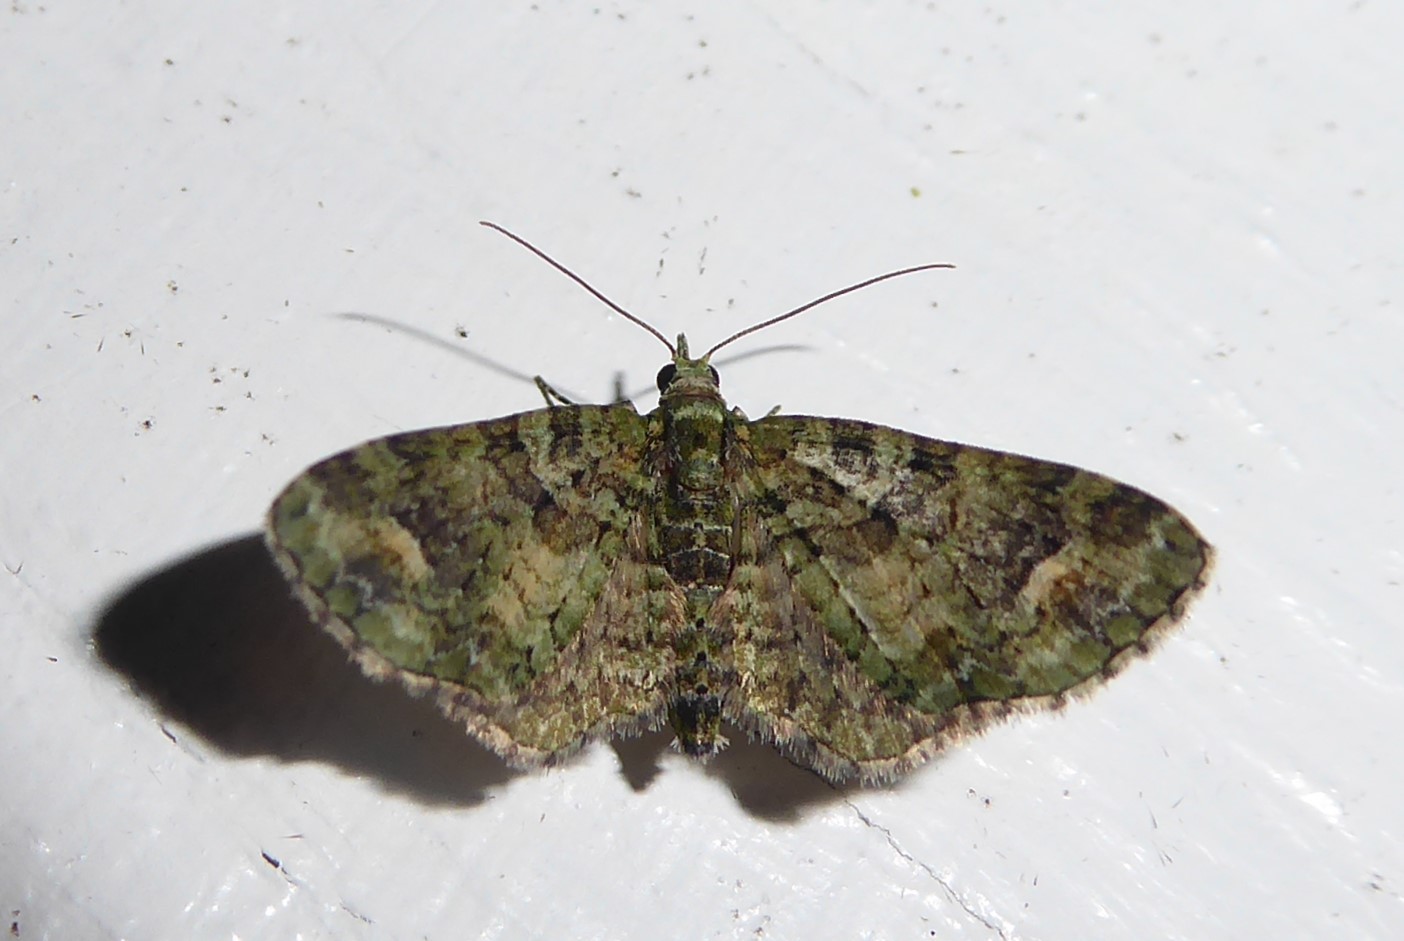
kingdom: Animalia
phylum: Arthropoda
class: Insecta
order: Lepidoptera
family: Geometridae
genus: Idaea
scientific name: Idaea mutanda
